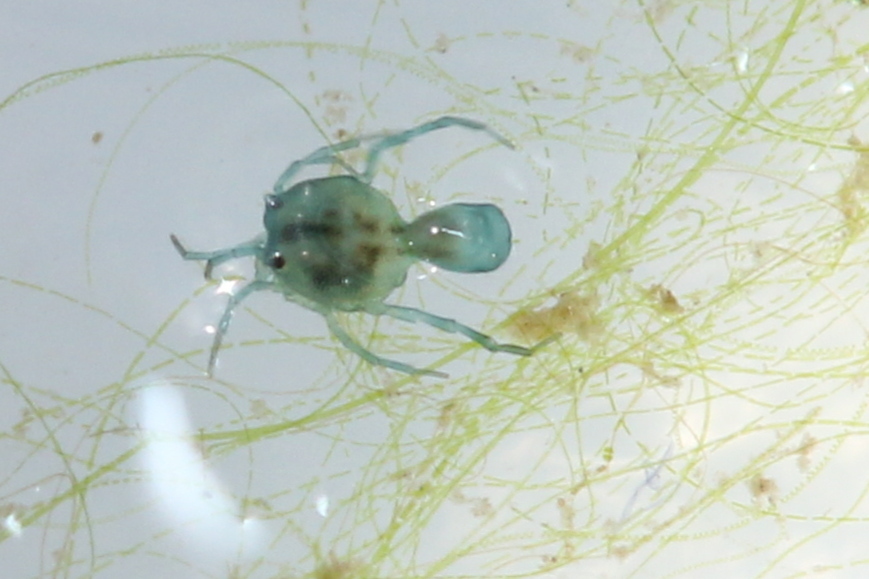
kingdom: Animalia
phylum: Arthropoda
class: Arachnida
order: Trombidiformes
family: Arrenuridae
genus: Arrenurus
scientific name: Arrenurus marshallae
